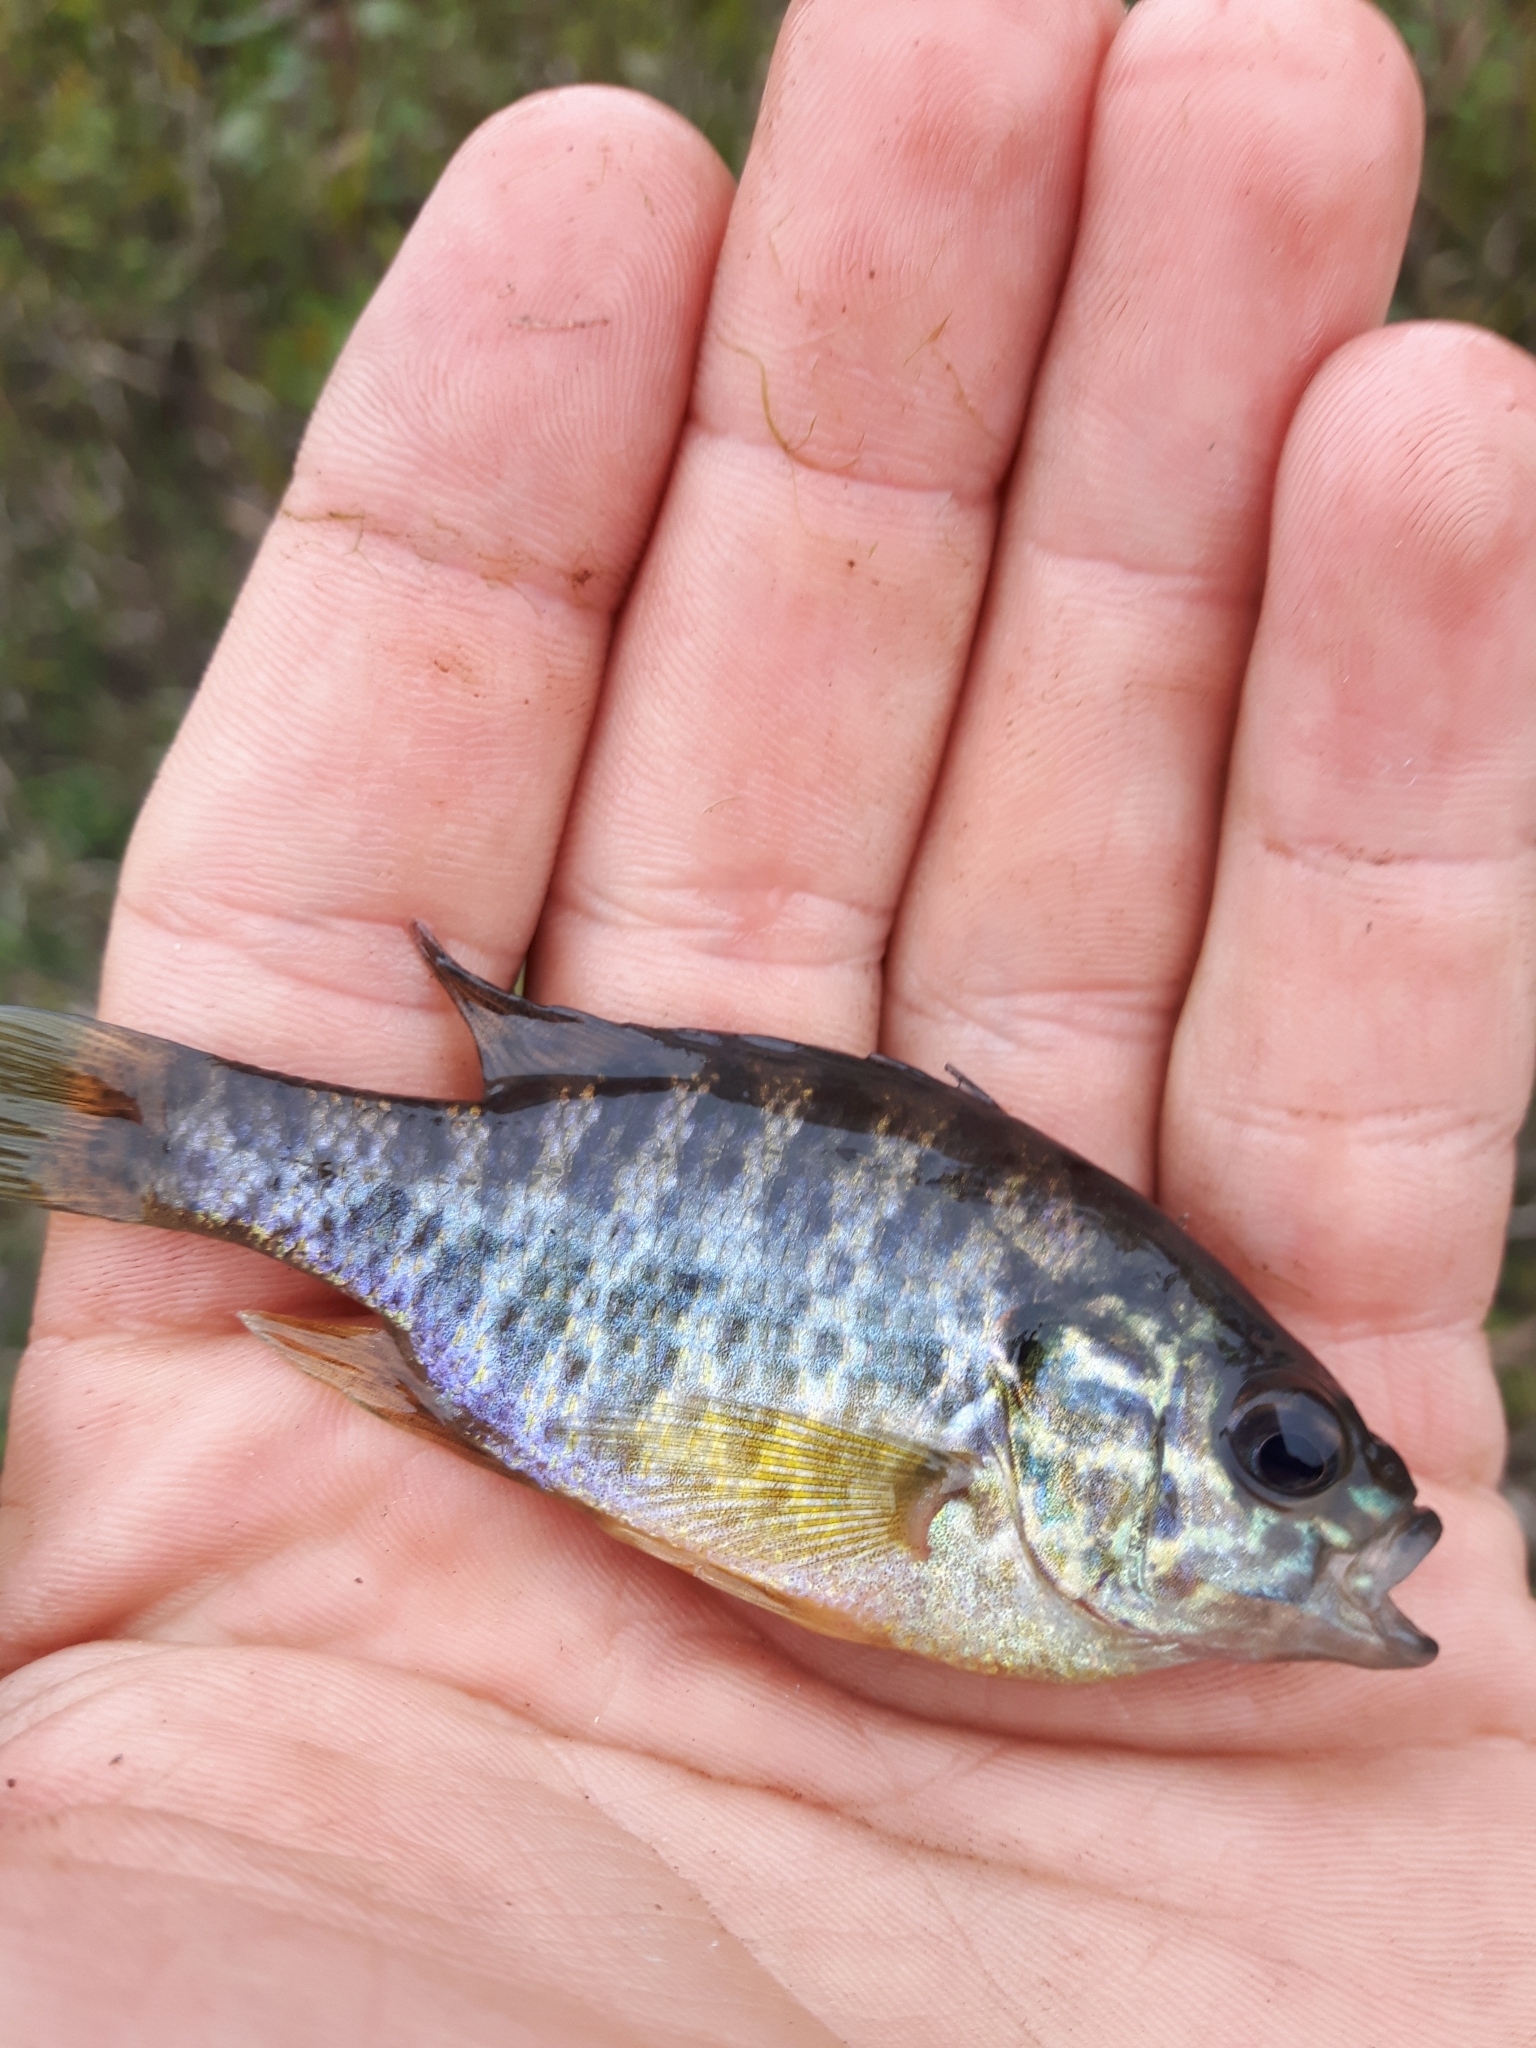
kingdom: Animalia
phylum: Chordata
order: Perciformes
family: Centrarchidae
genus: Lepomis
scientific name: Lepomis gibbosus
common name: Pumpkinseed
